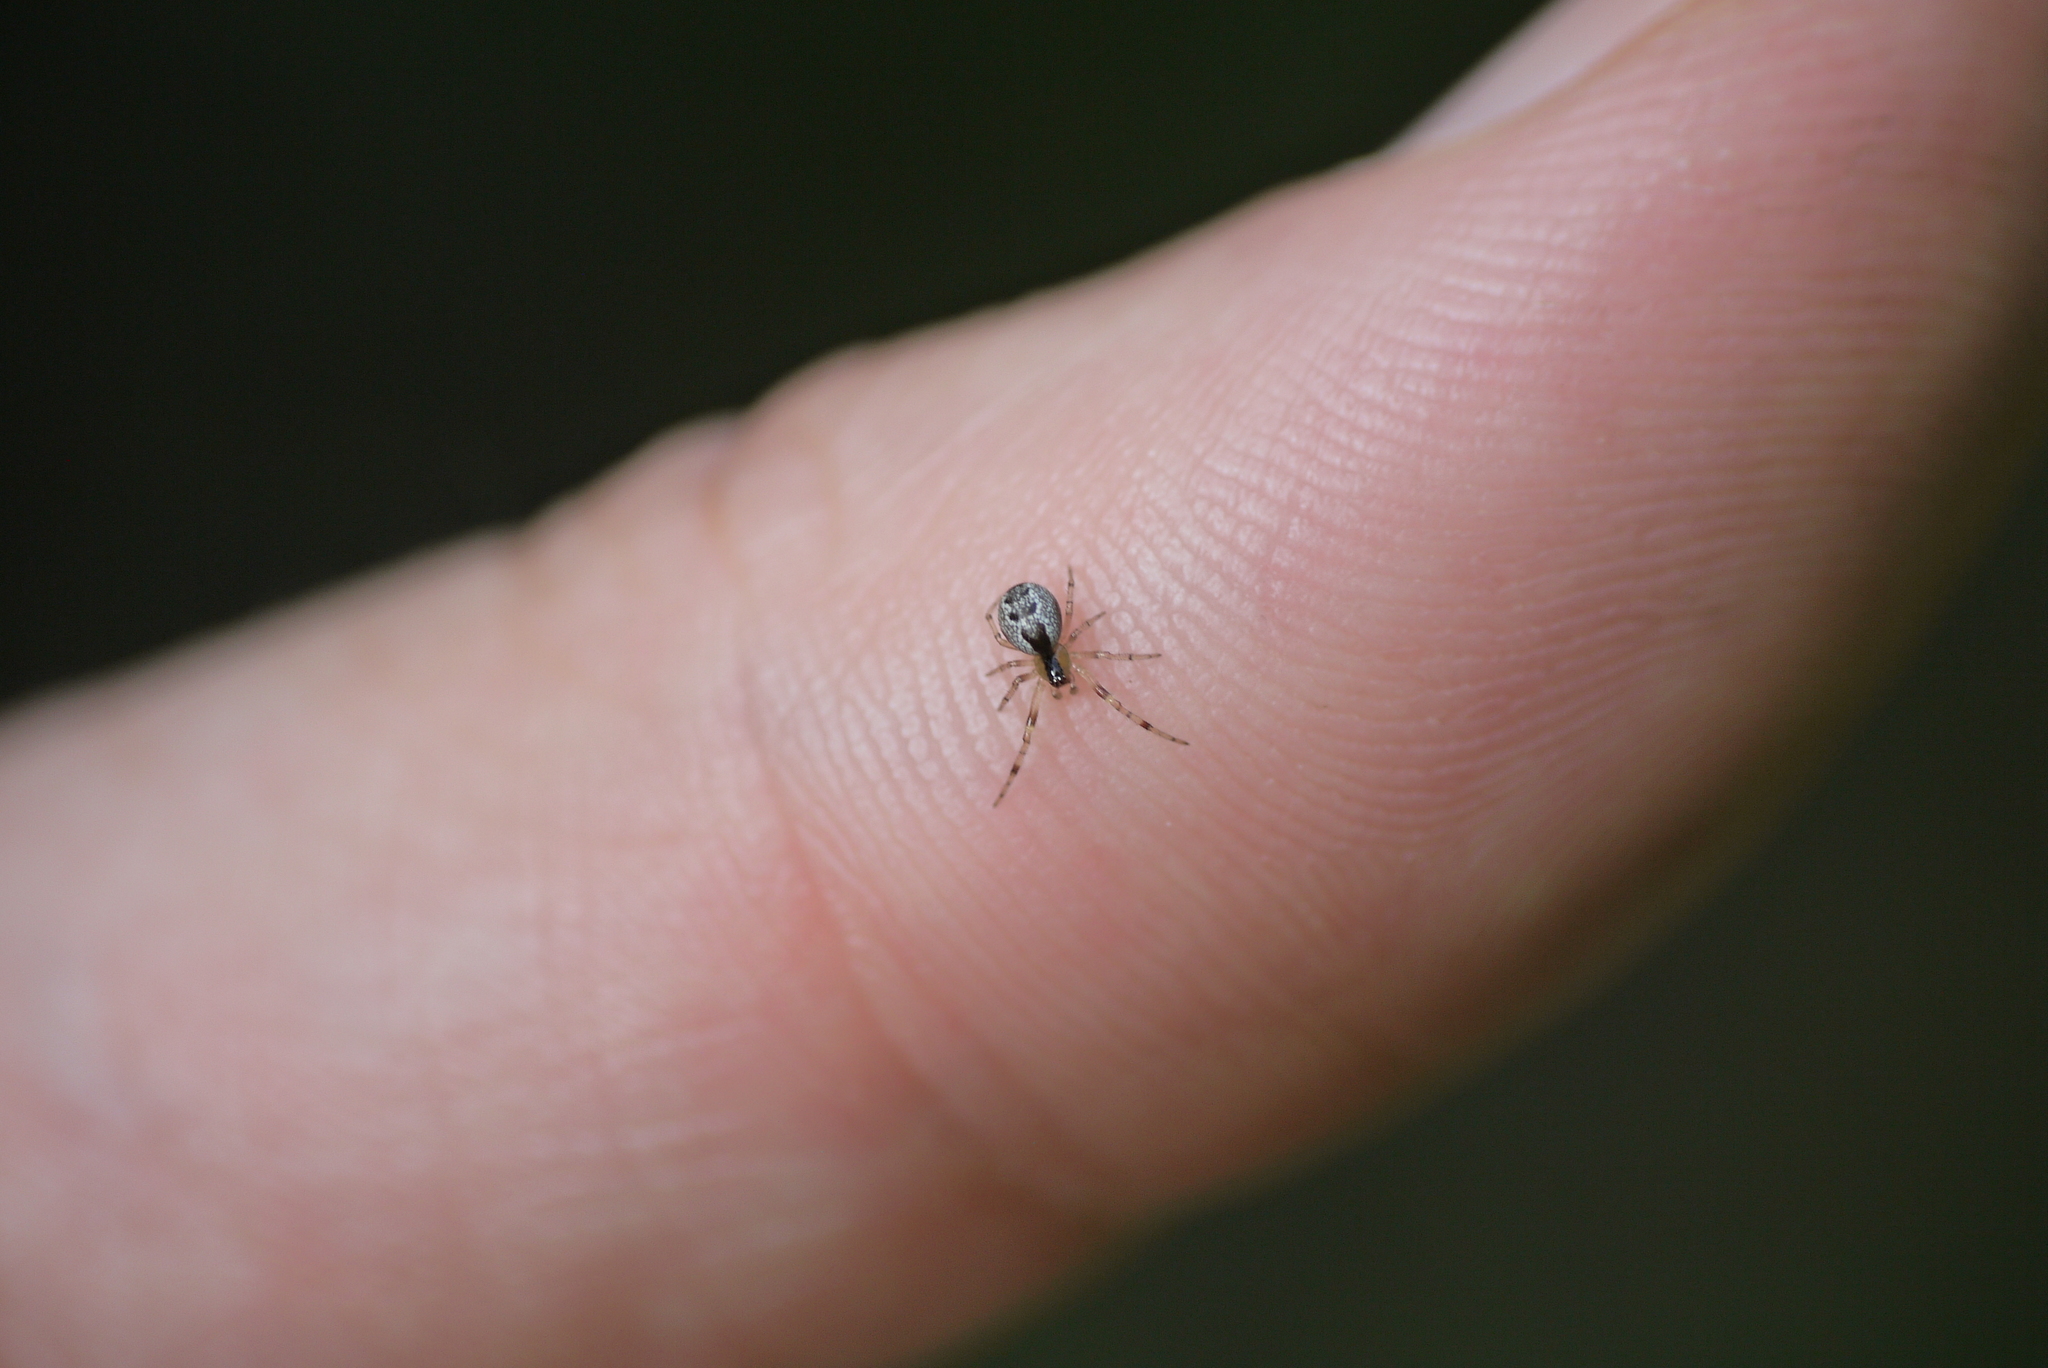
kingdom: Animalia
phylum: Arthropoda
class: Arachnida
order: Araneae
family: Theridiidae
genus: Anelosimus
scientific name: Anelosimus vittatus
